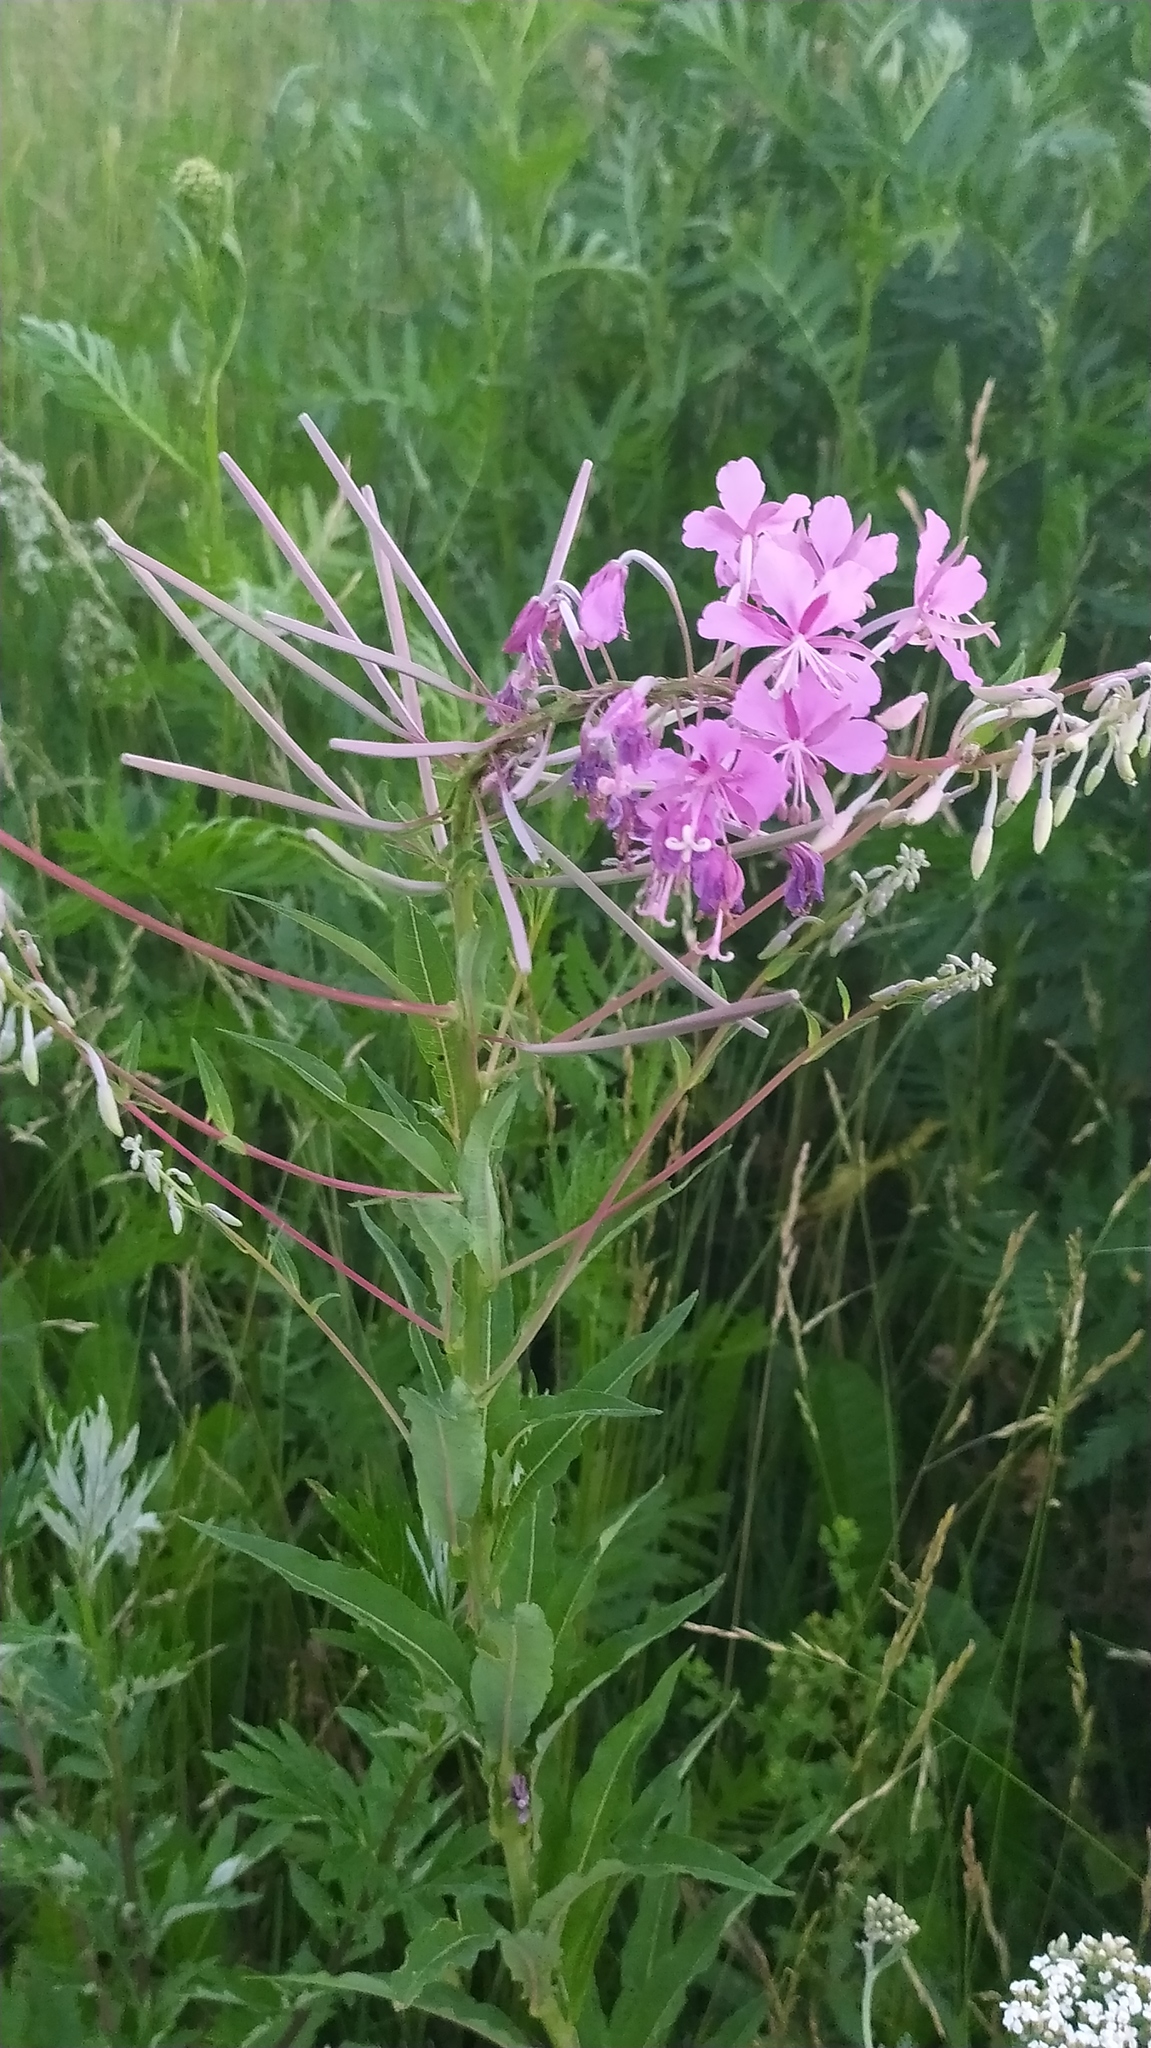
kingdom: Plantae
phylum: Tracheophyta
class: Magnoliopsida
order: Myrtales
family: Onagraceae
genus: Chamaenerion
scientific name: Chamaenerion angustifolium
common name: Fireweed
